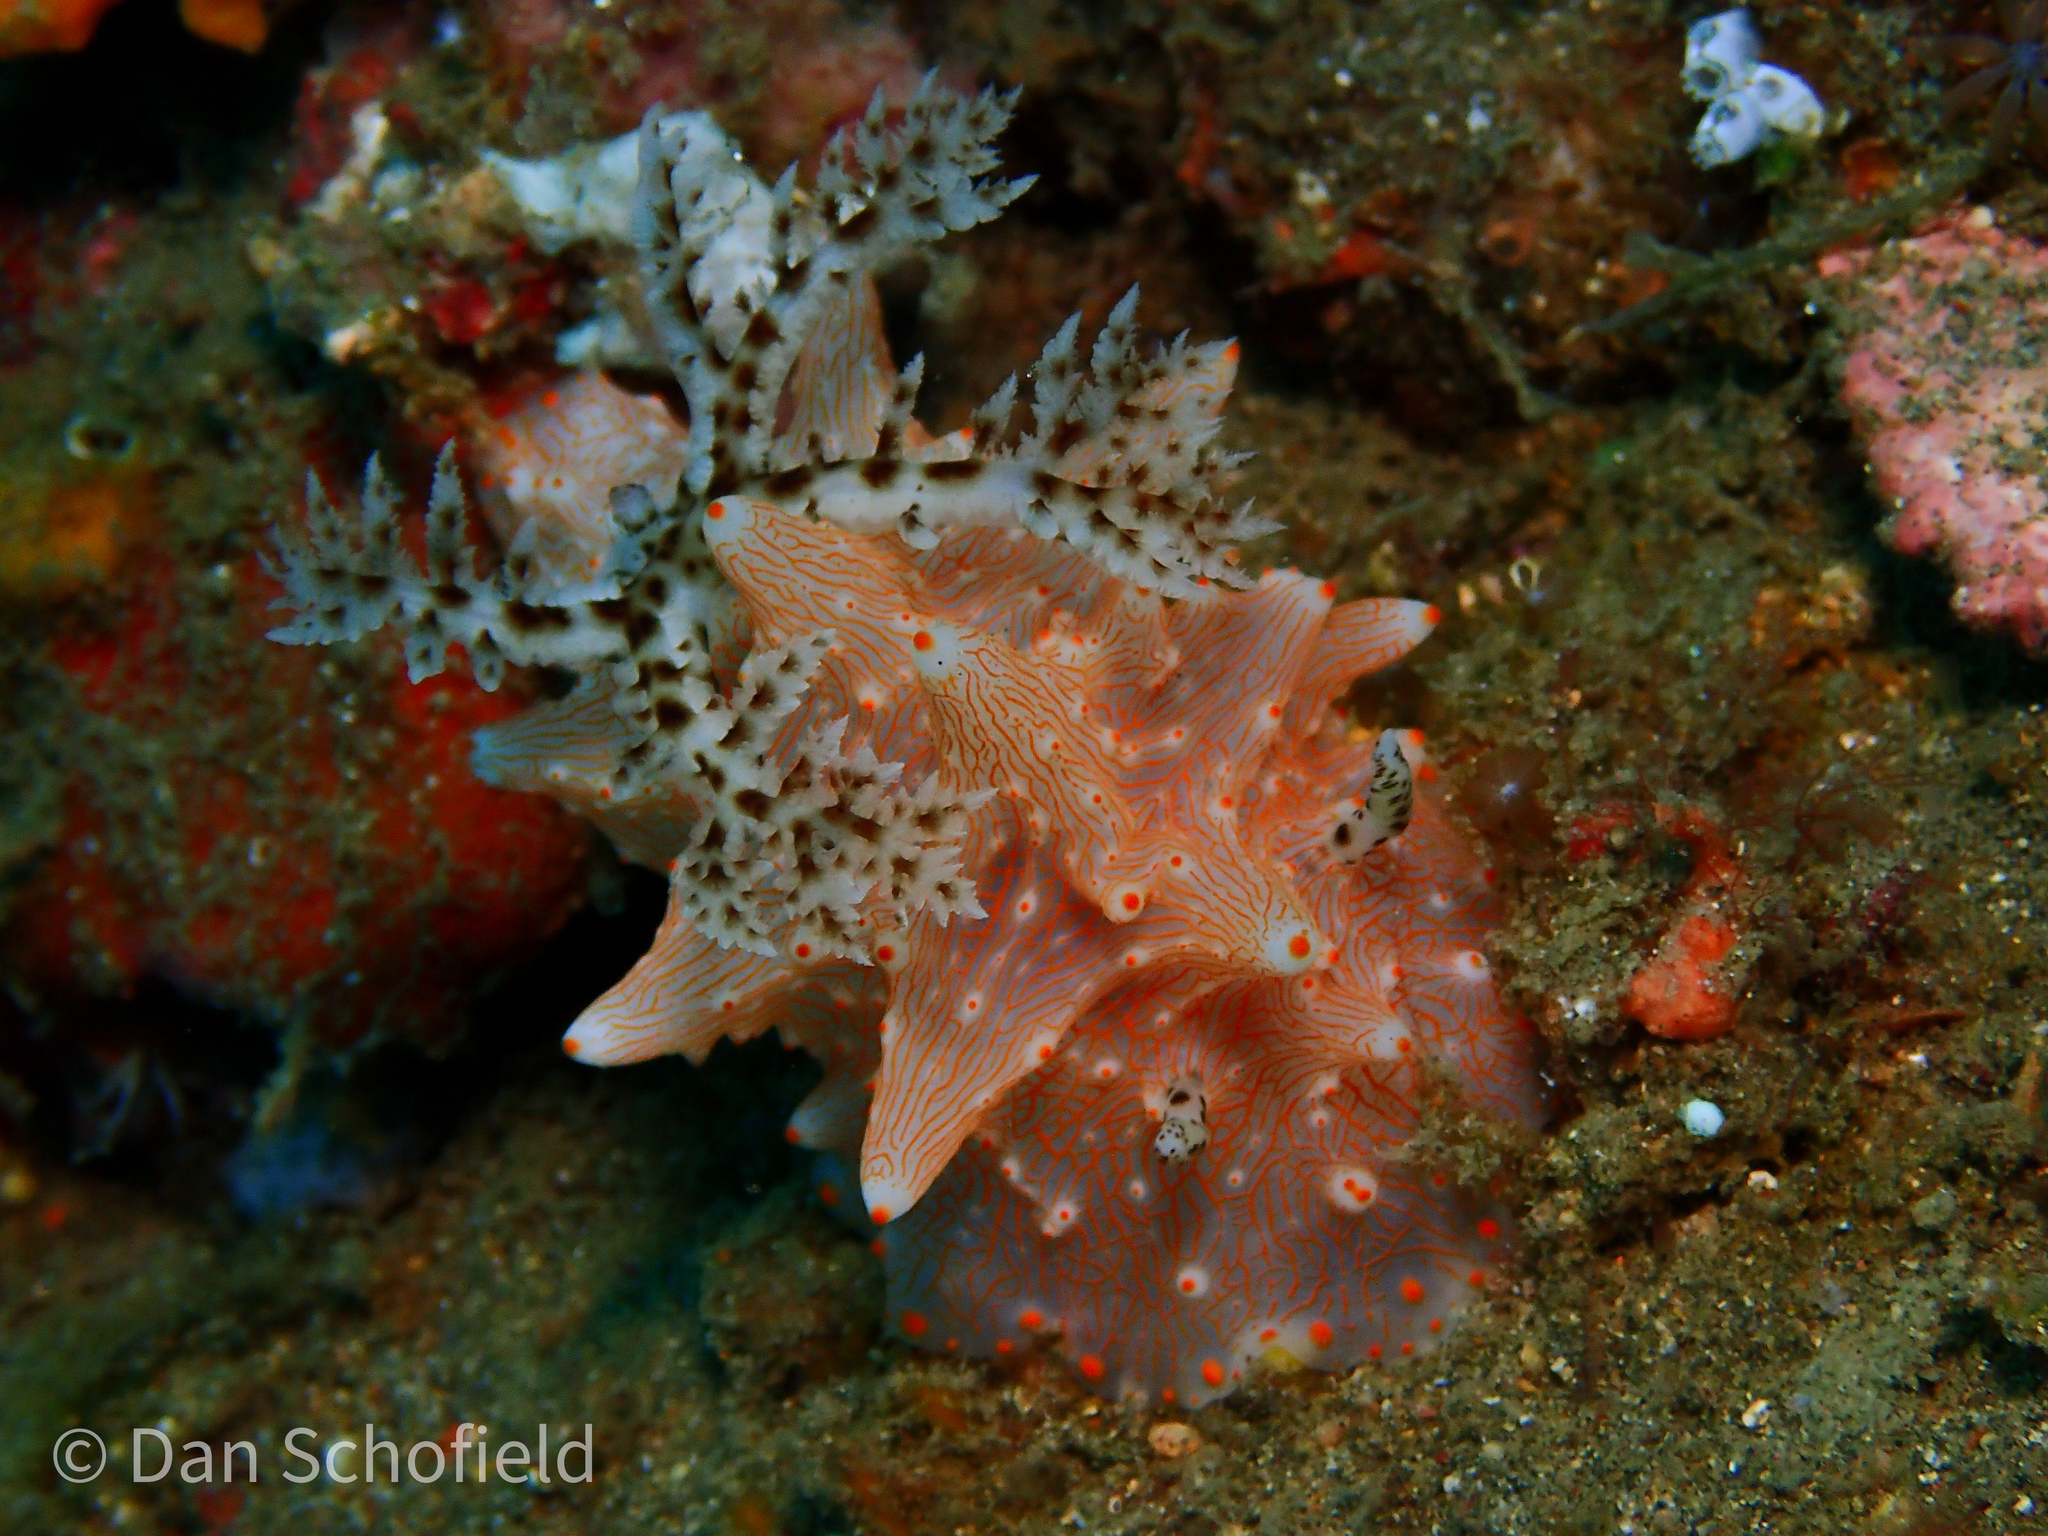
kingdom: Animalia
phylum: Mollusca
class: Gastropoda
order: Nudibranchia
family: Discodorididae
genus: Halgerda
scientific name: Halgerda batangas
